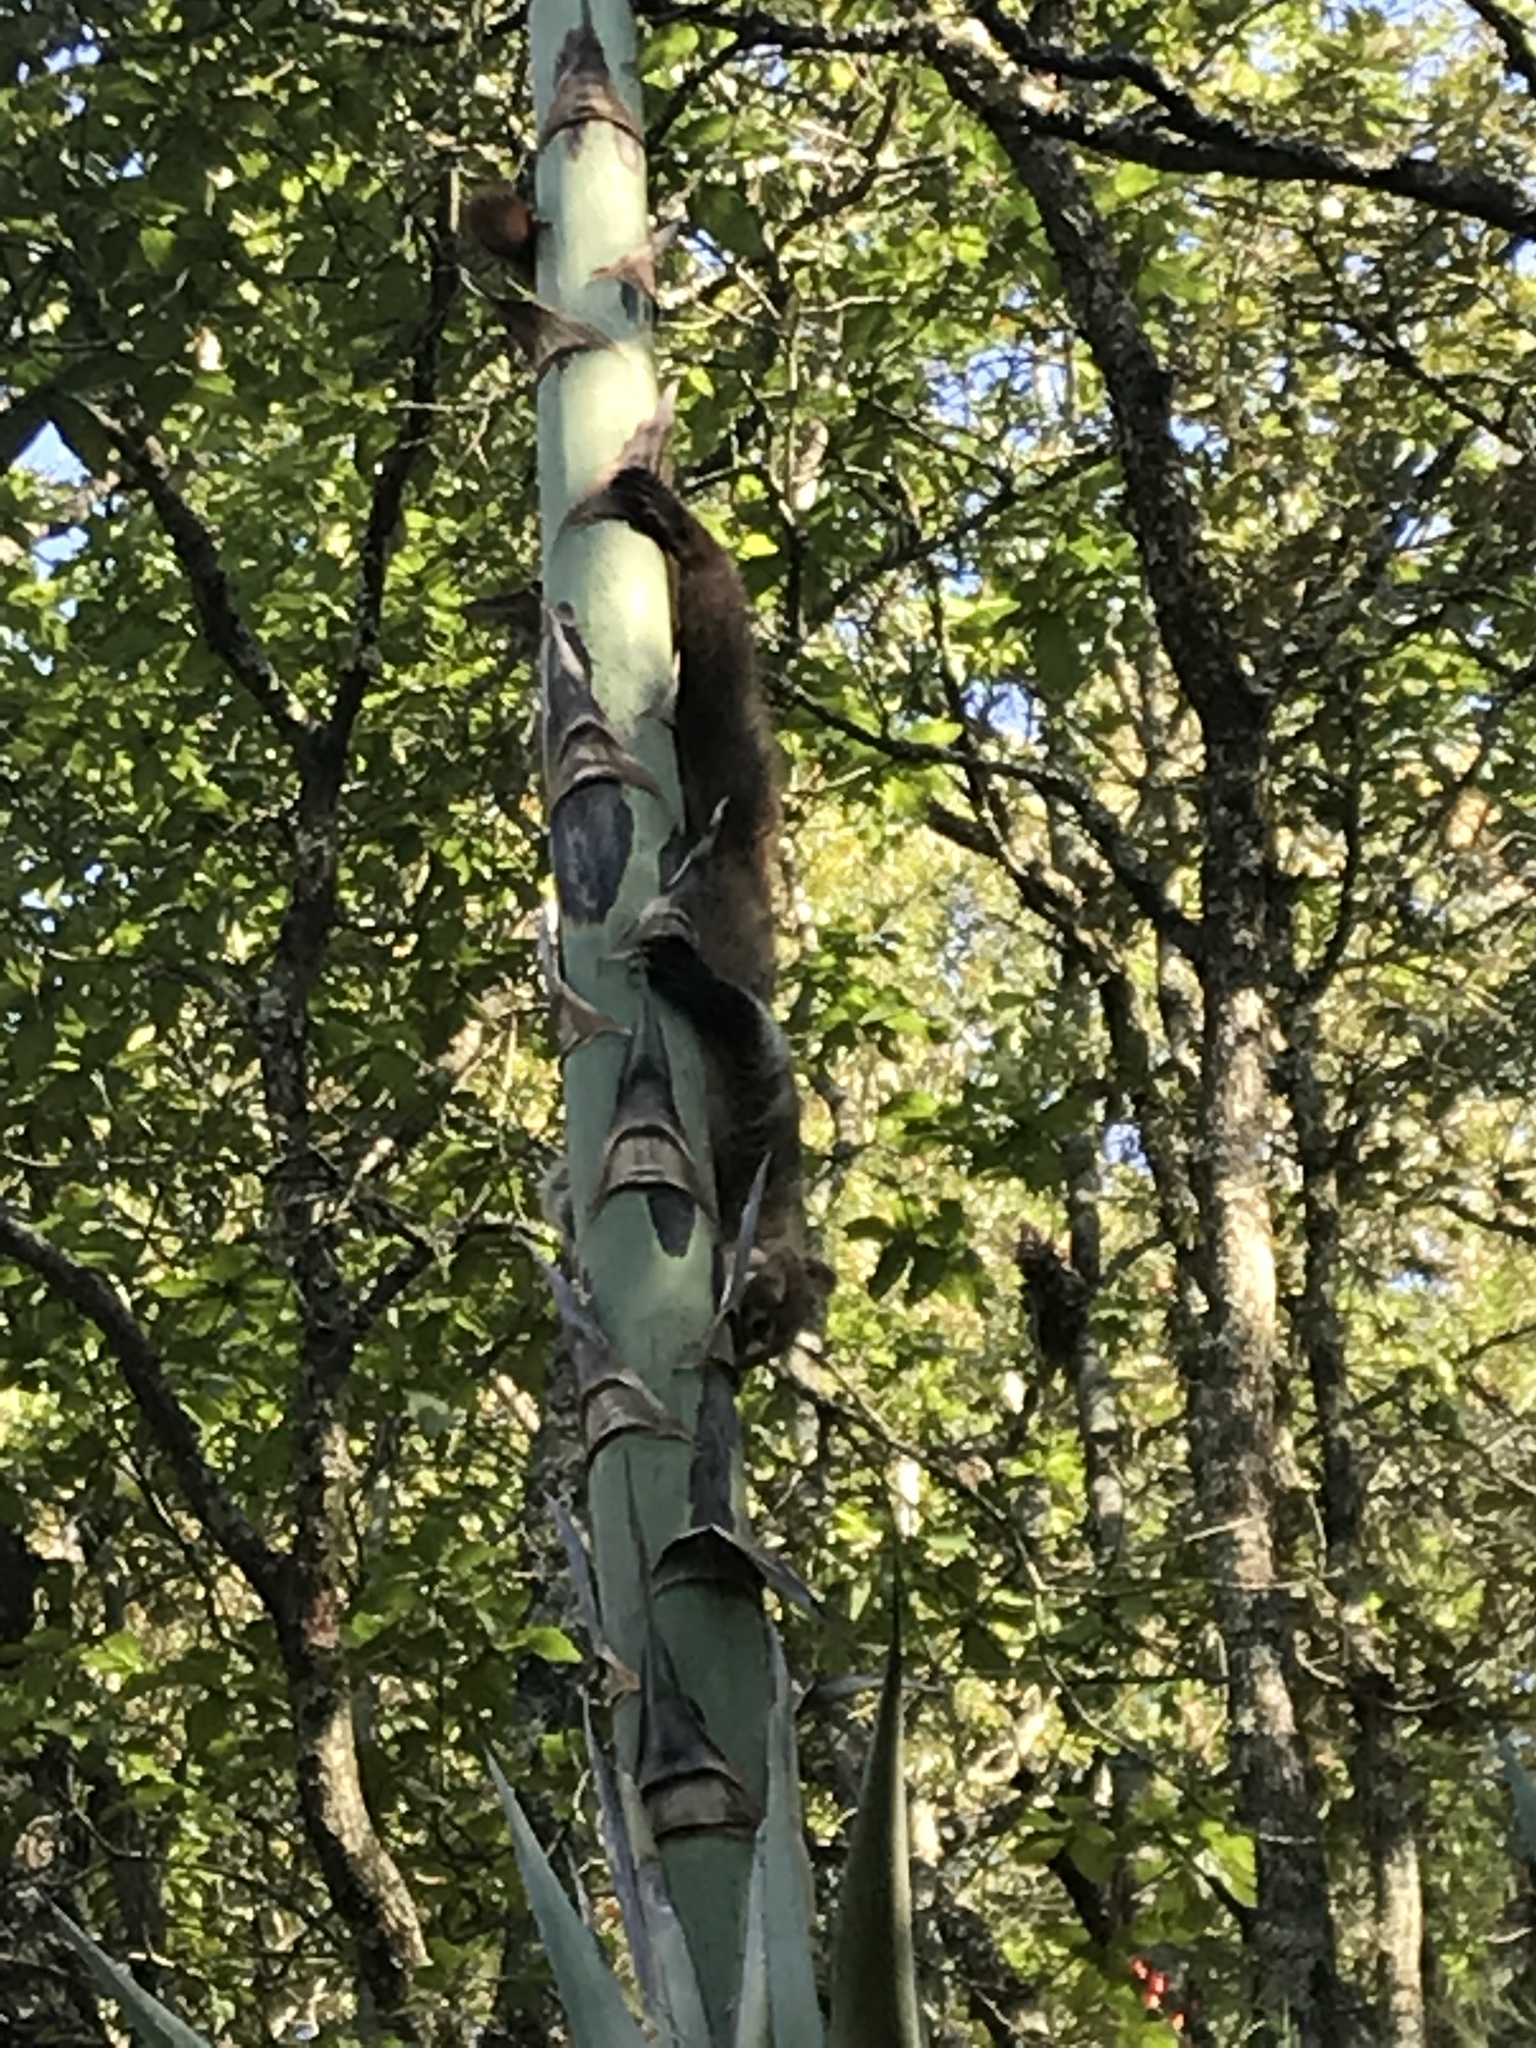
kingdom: Animalia
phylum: Chordata
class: Mammalia
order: Carnivora
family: Procyonidae
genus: Nasua
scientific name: Nasua narica
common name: White-nosed coati
